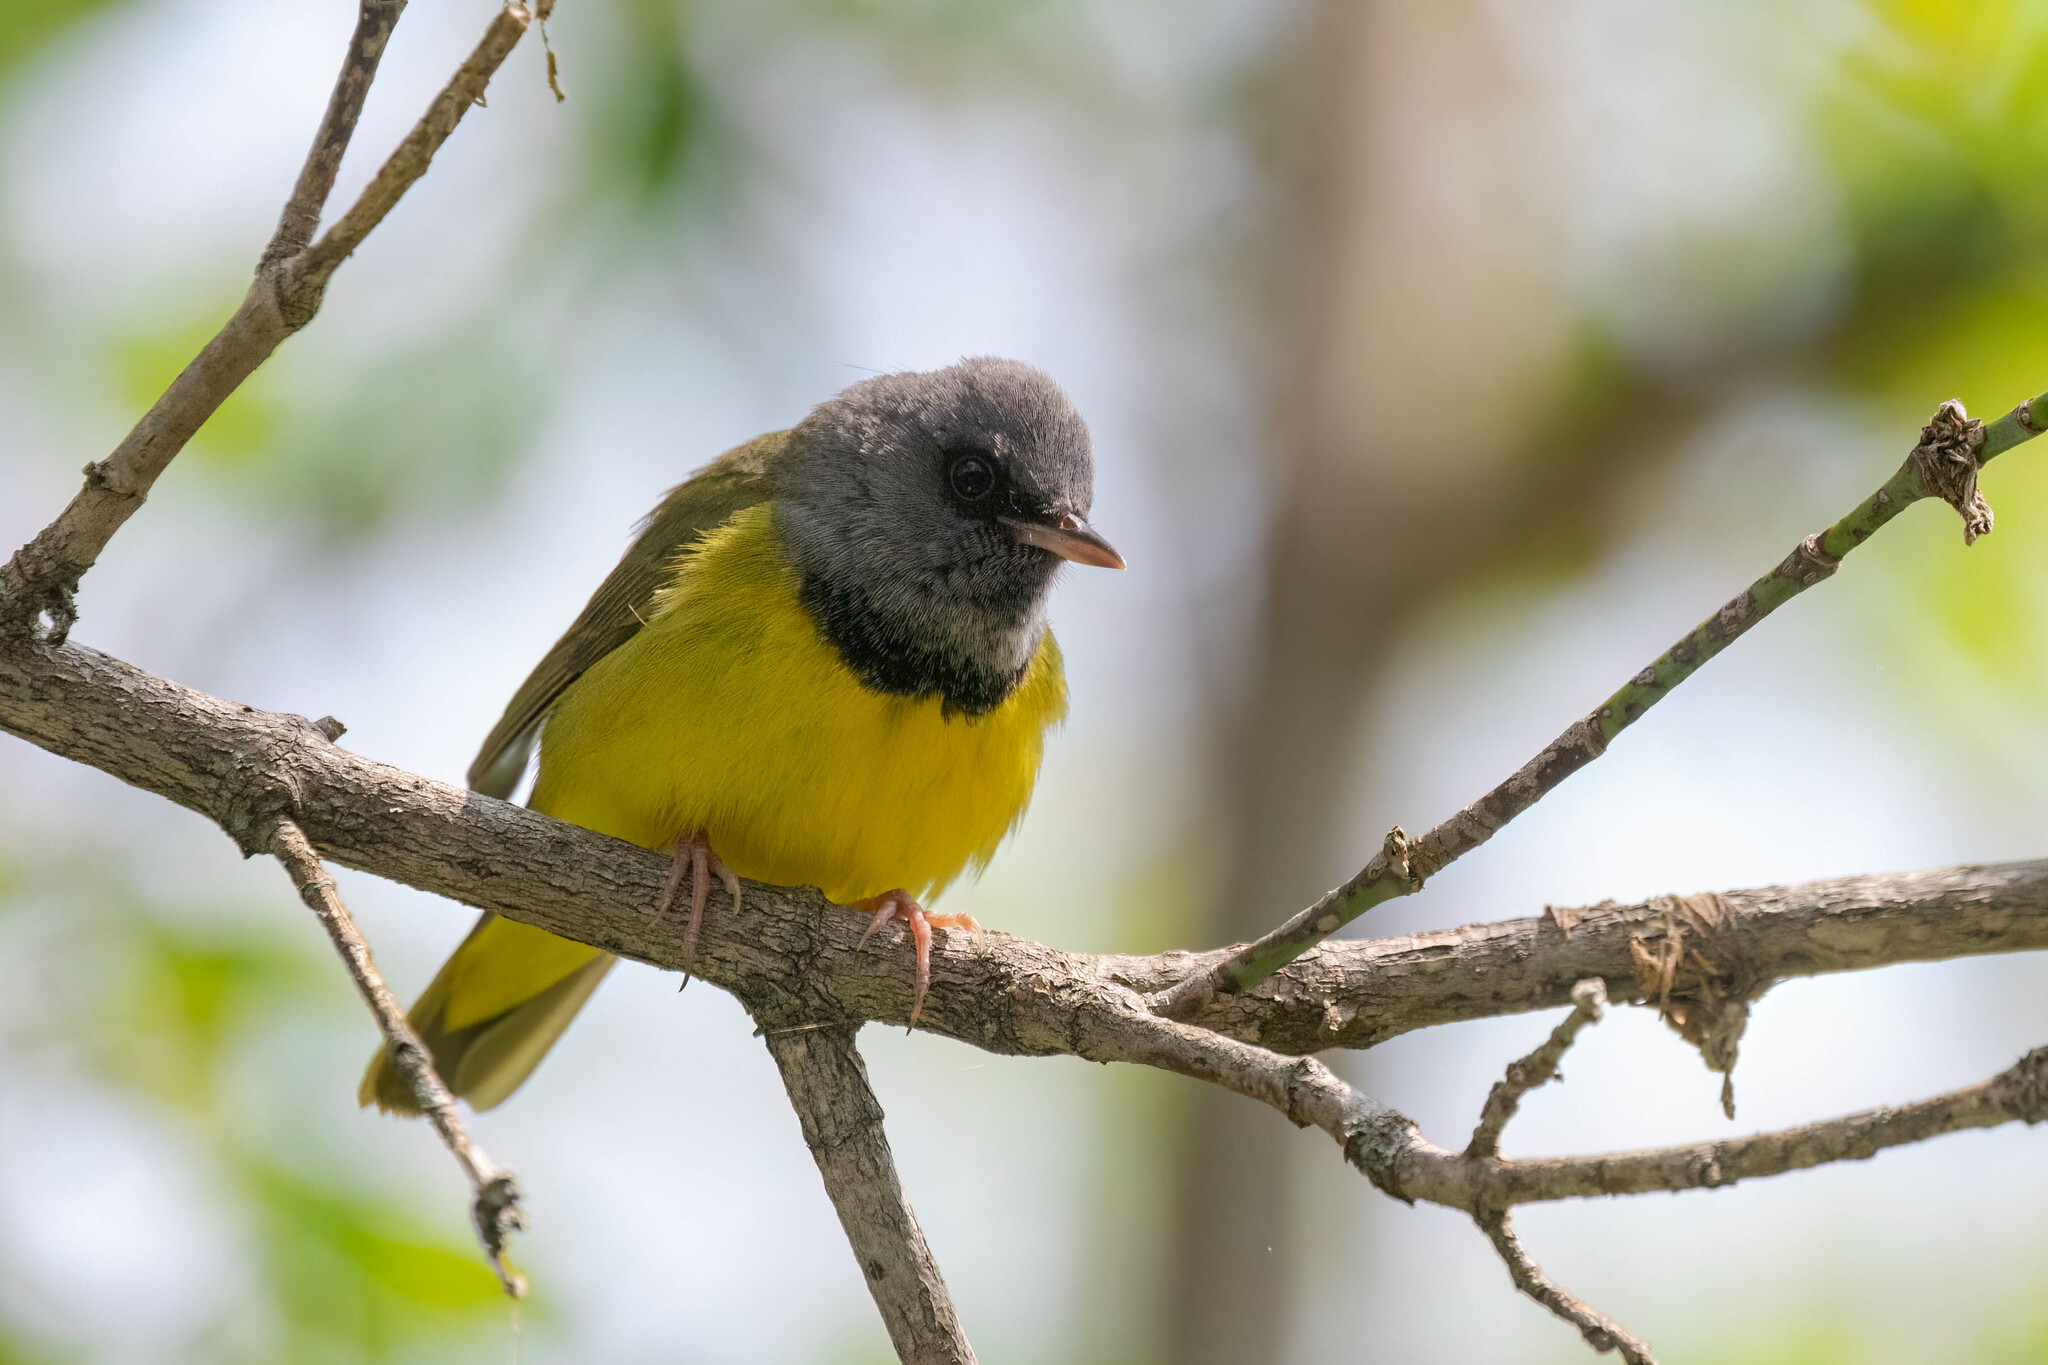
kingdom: Animalia
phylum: Chordata
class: Aves
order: Passeriformes
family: Parulidae
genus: Geothlypis
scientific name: Geothlypis philadelphia
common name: Mourning warbler
